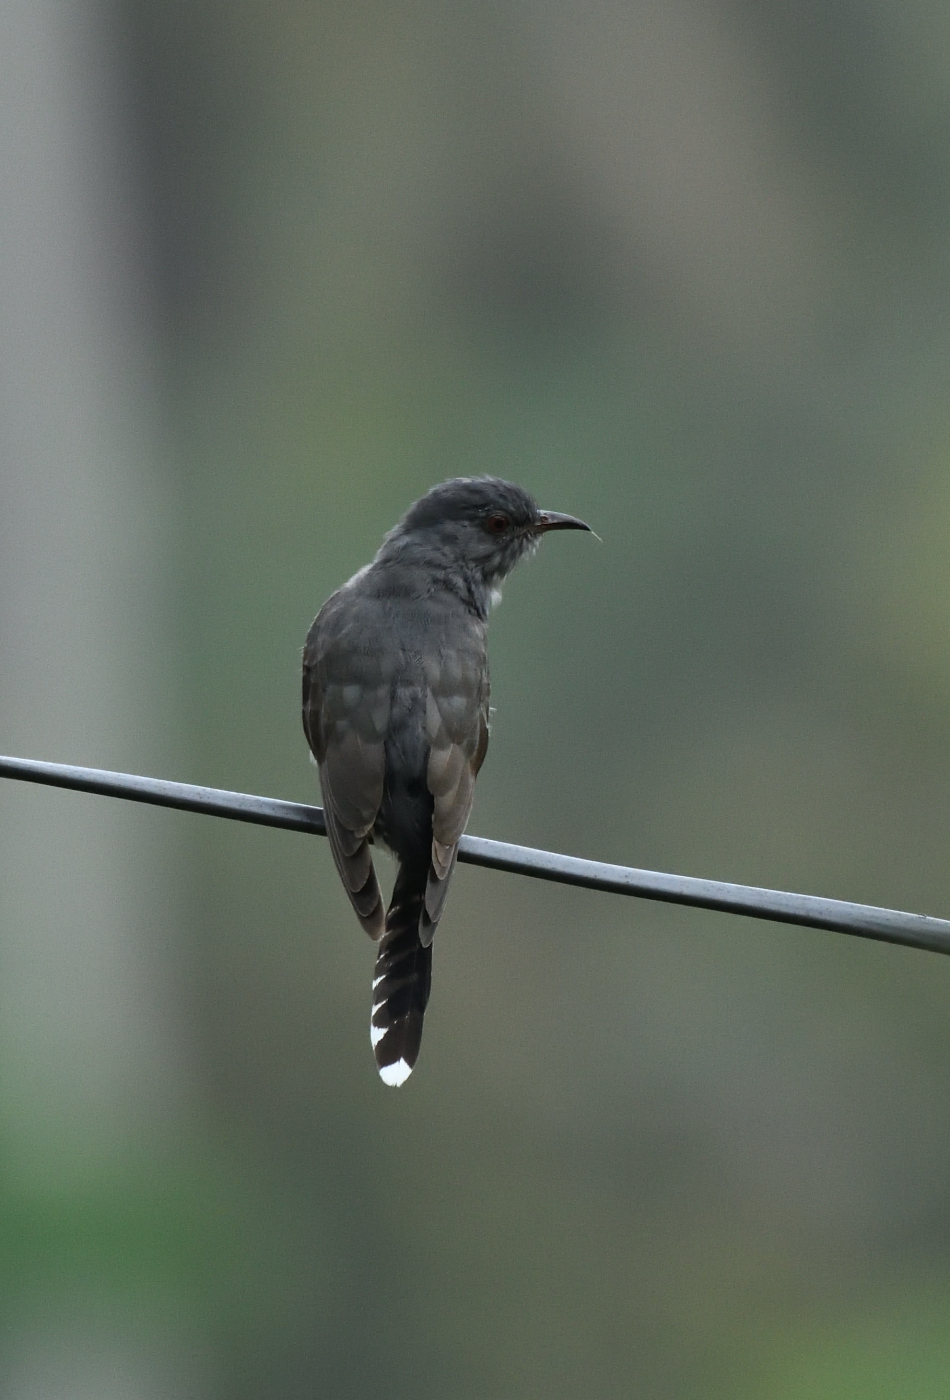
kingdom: Animalia
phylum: Chordata
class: Aves
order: Cuculiformes
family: Cuculidae
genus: Cacomantis
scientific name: Cacomantis passerinus
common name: Grey-bellied cuckoo
